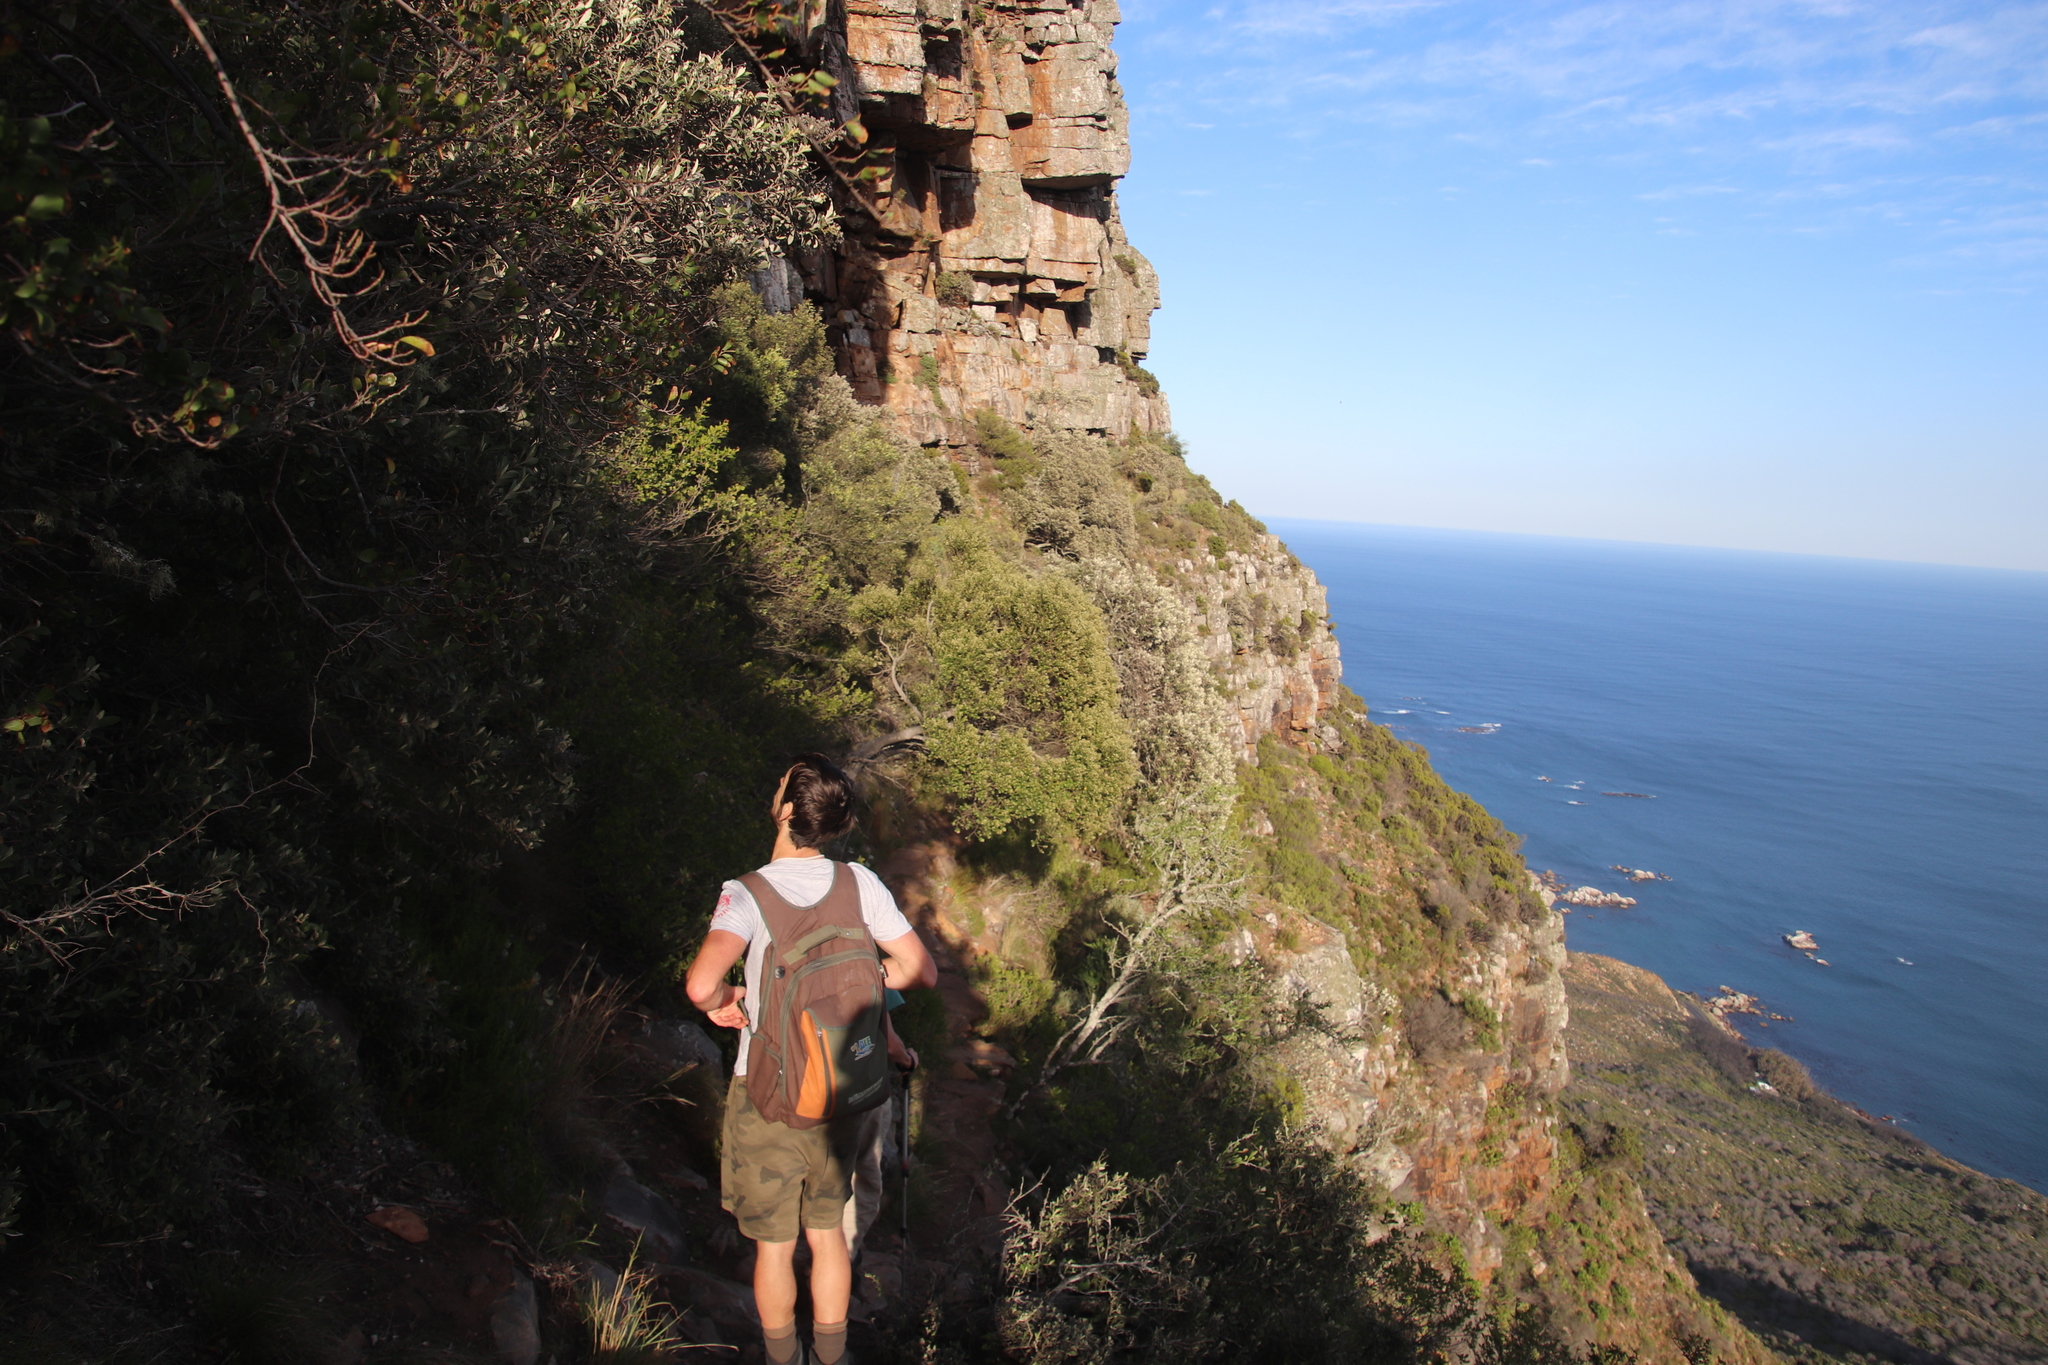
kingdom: Plantae
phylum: Tracheophyta
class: Magnoliopsida
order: Rosales
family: Rhamnaceae
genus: Phylica
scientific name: Phylica buxifolia
